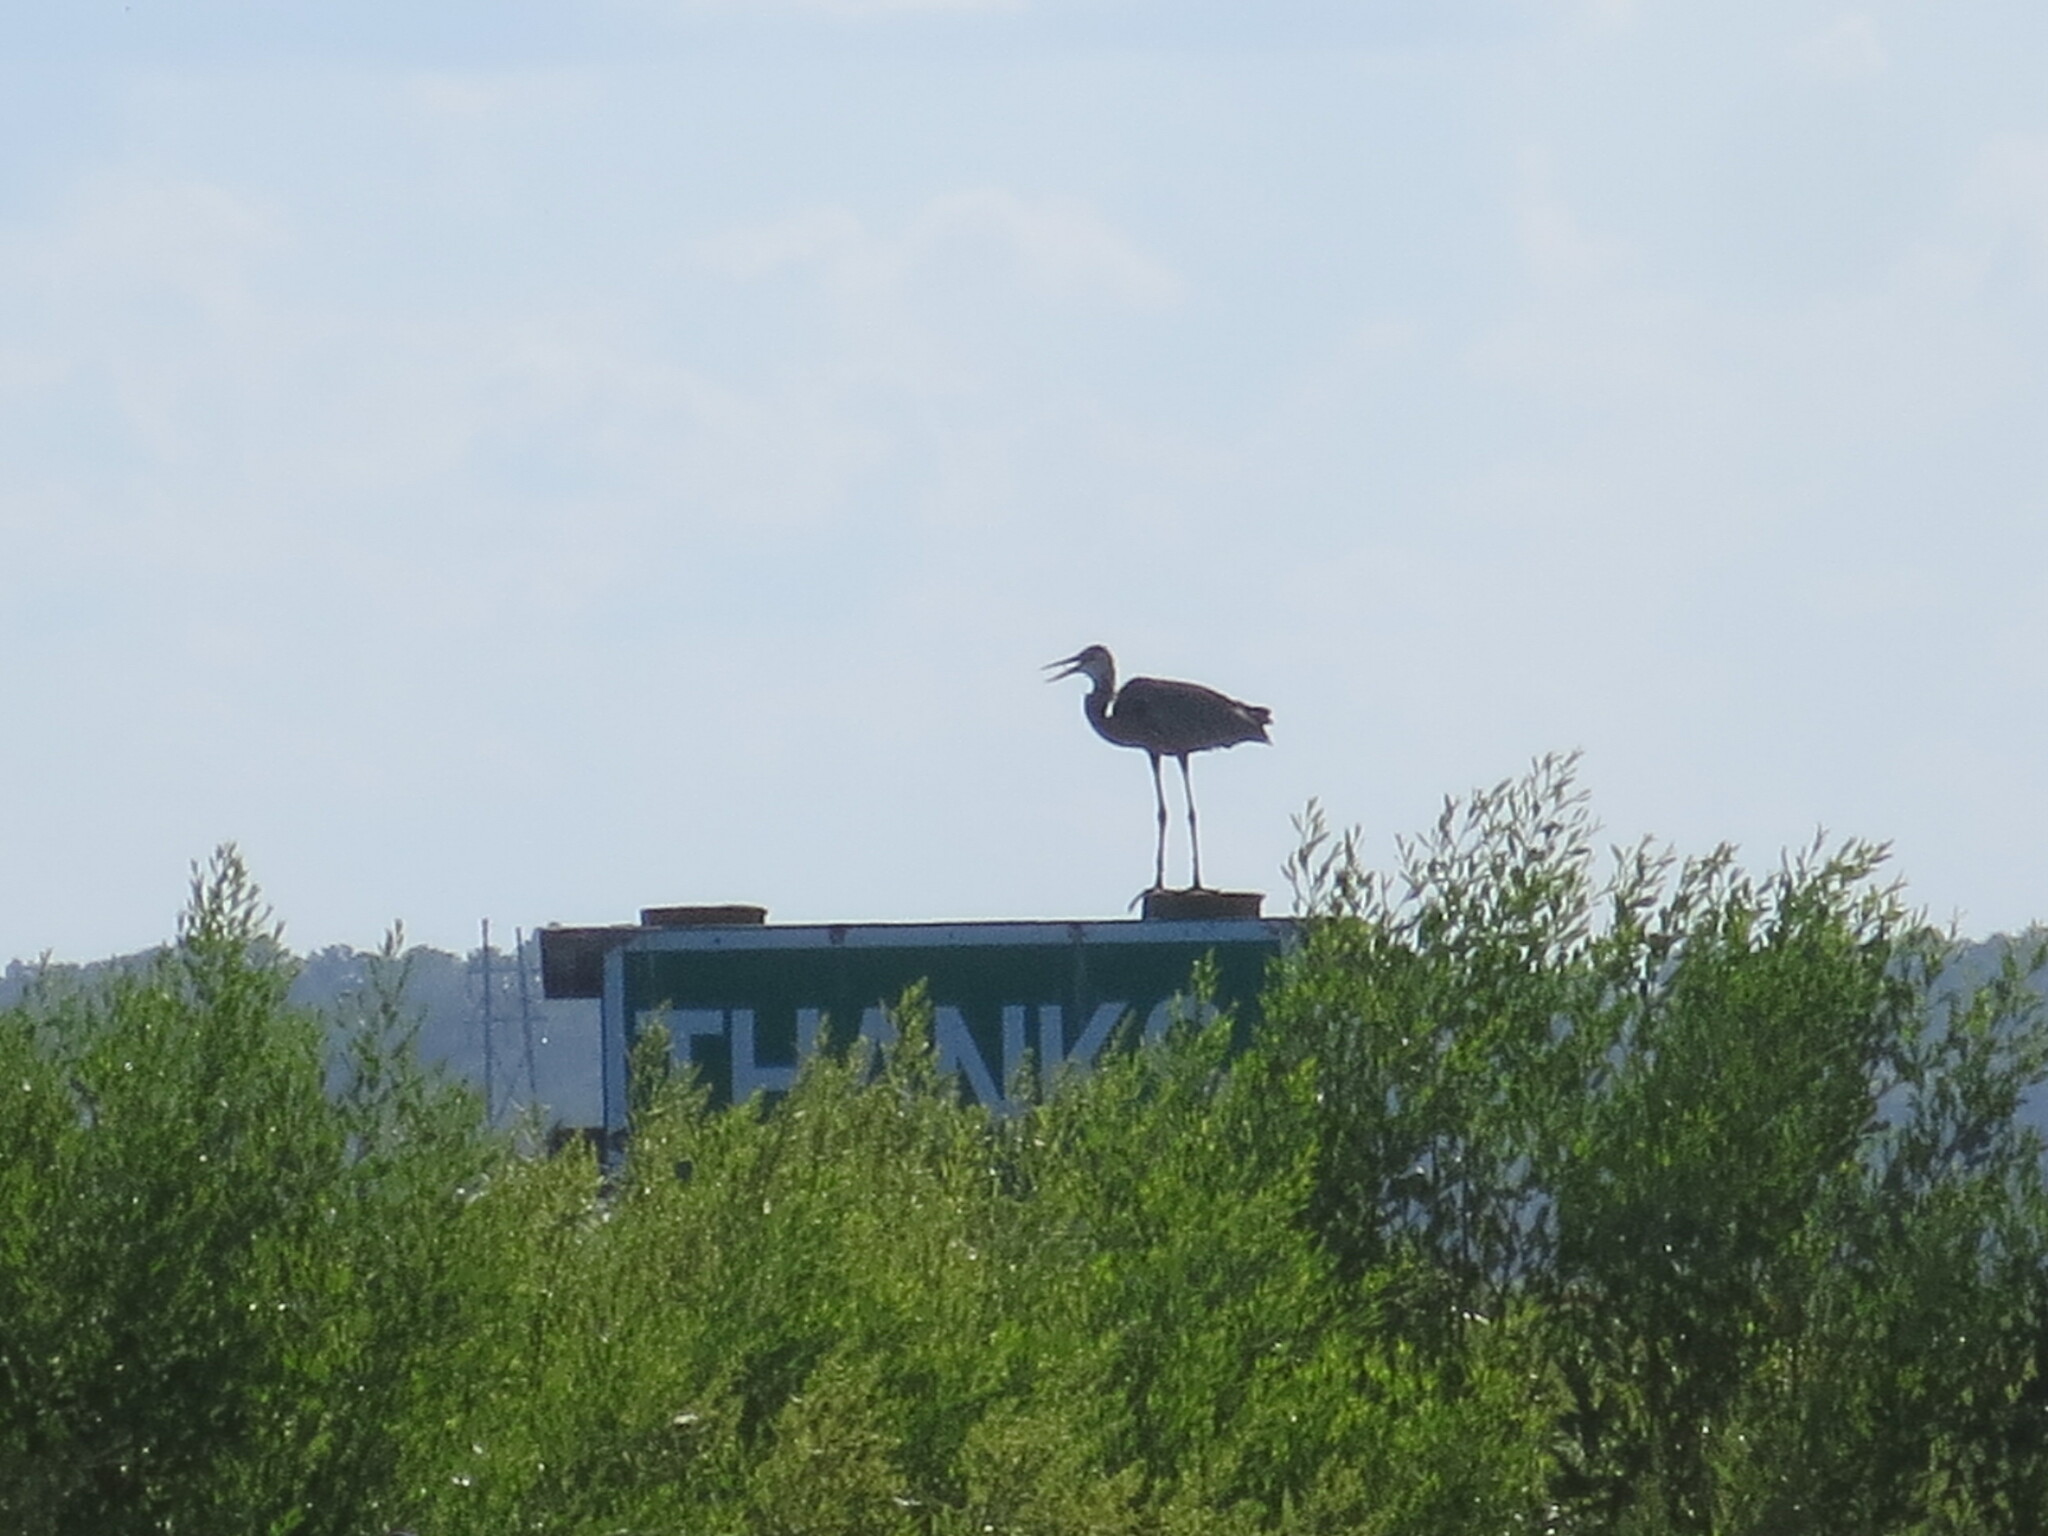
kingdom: Animalia
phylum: Chordata
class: Aves
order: Pelecaniformes
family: Ardeidae
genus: Ardea
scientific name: Ardea herodias
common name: Great blue heron
